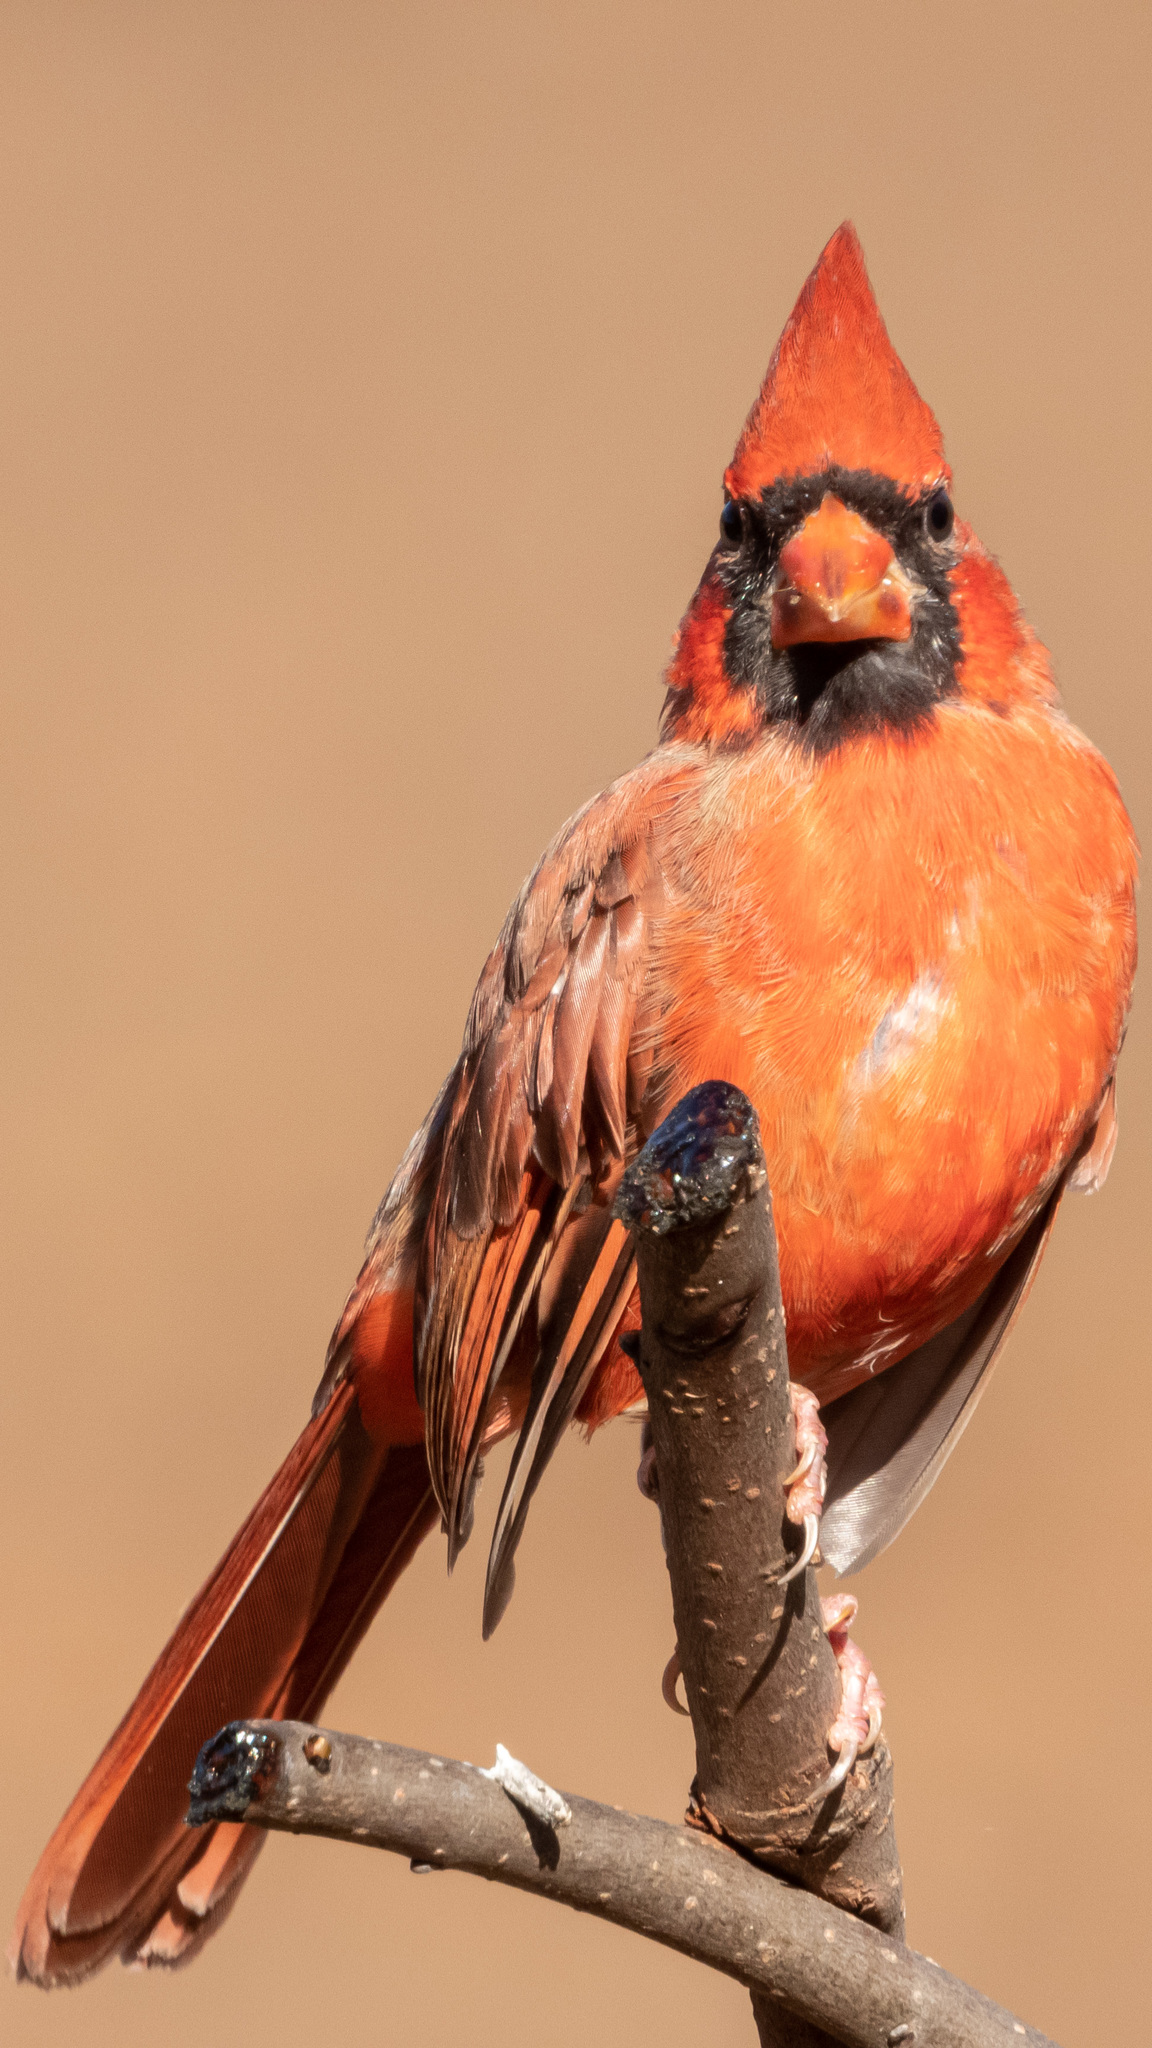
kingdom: Animalia
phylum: Chordata
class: Aves
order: Passeriformes
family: Cardinalidae
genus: Cardinalis
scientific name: Cardinalis cardinalis
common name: Northern cardinal
